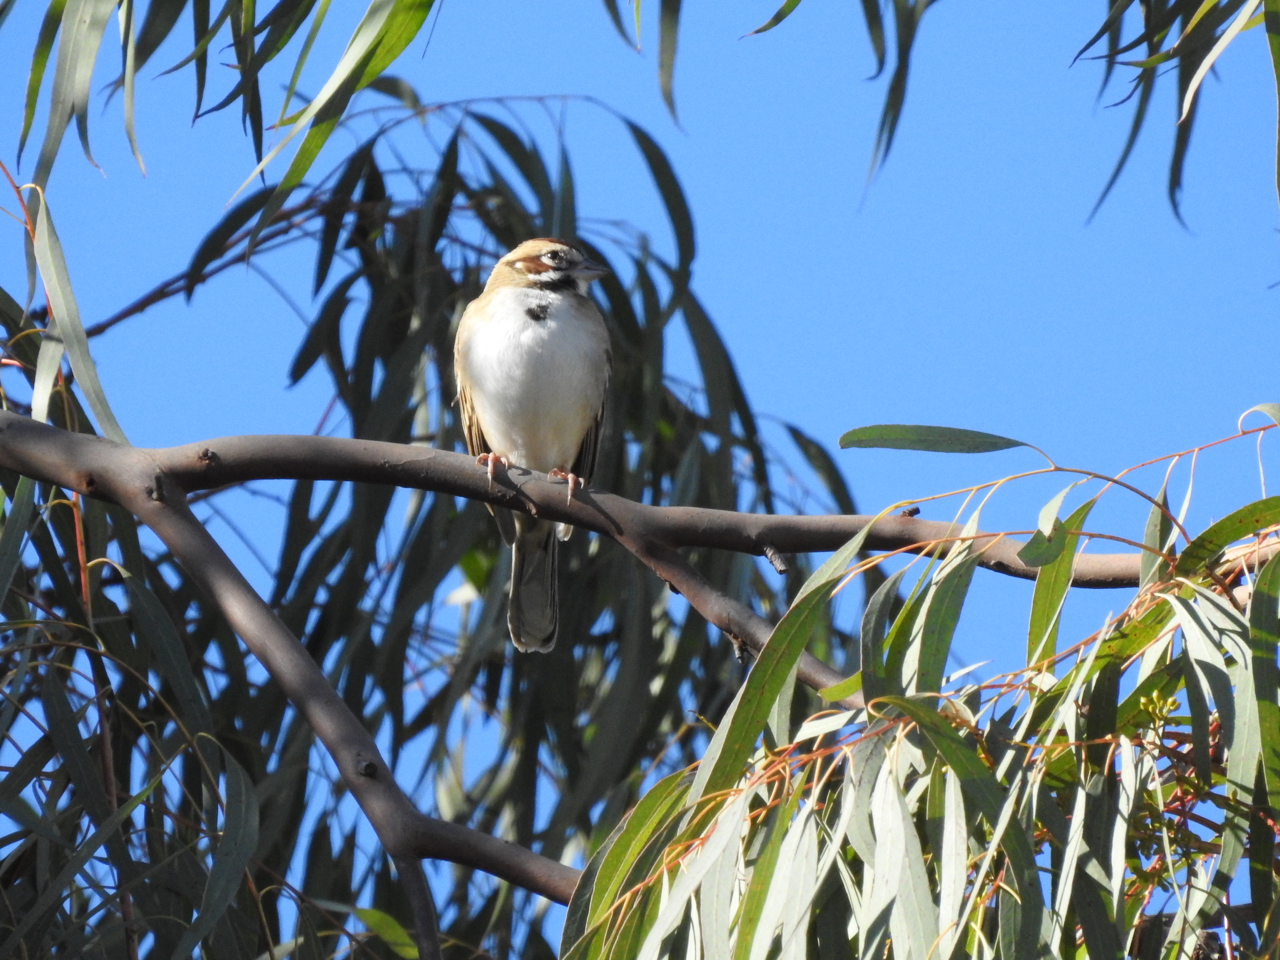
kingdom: Animalia
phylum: Chordata
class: Aves
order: Passeriformes
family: Passerellidae
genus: Chondestes
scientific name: Chondestes grammacus
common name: Lark sparrow
